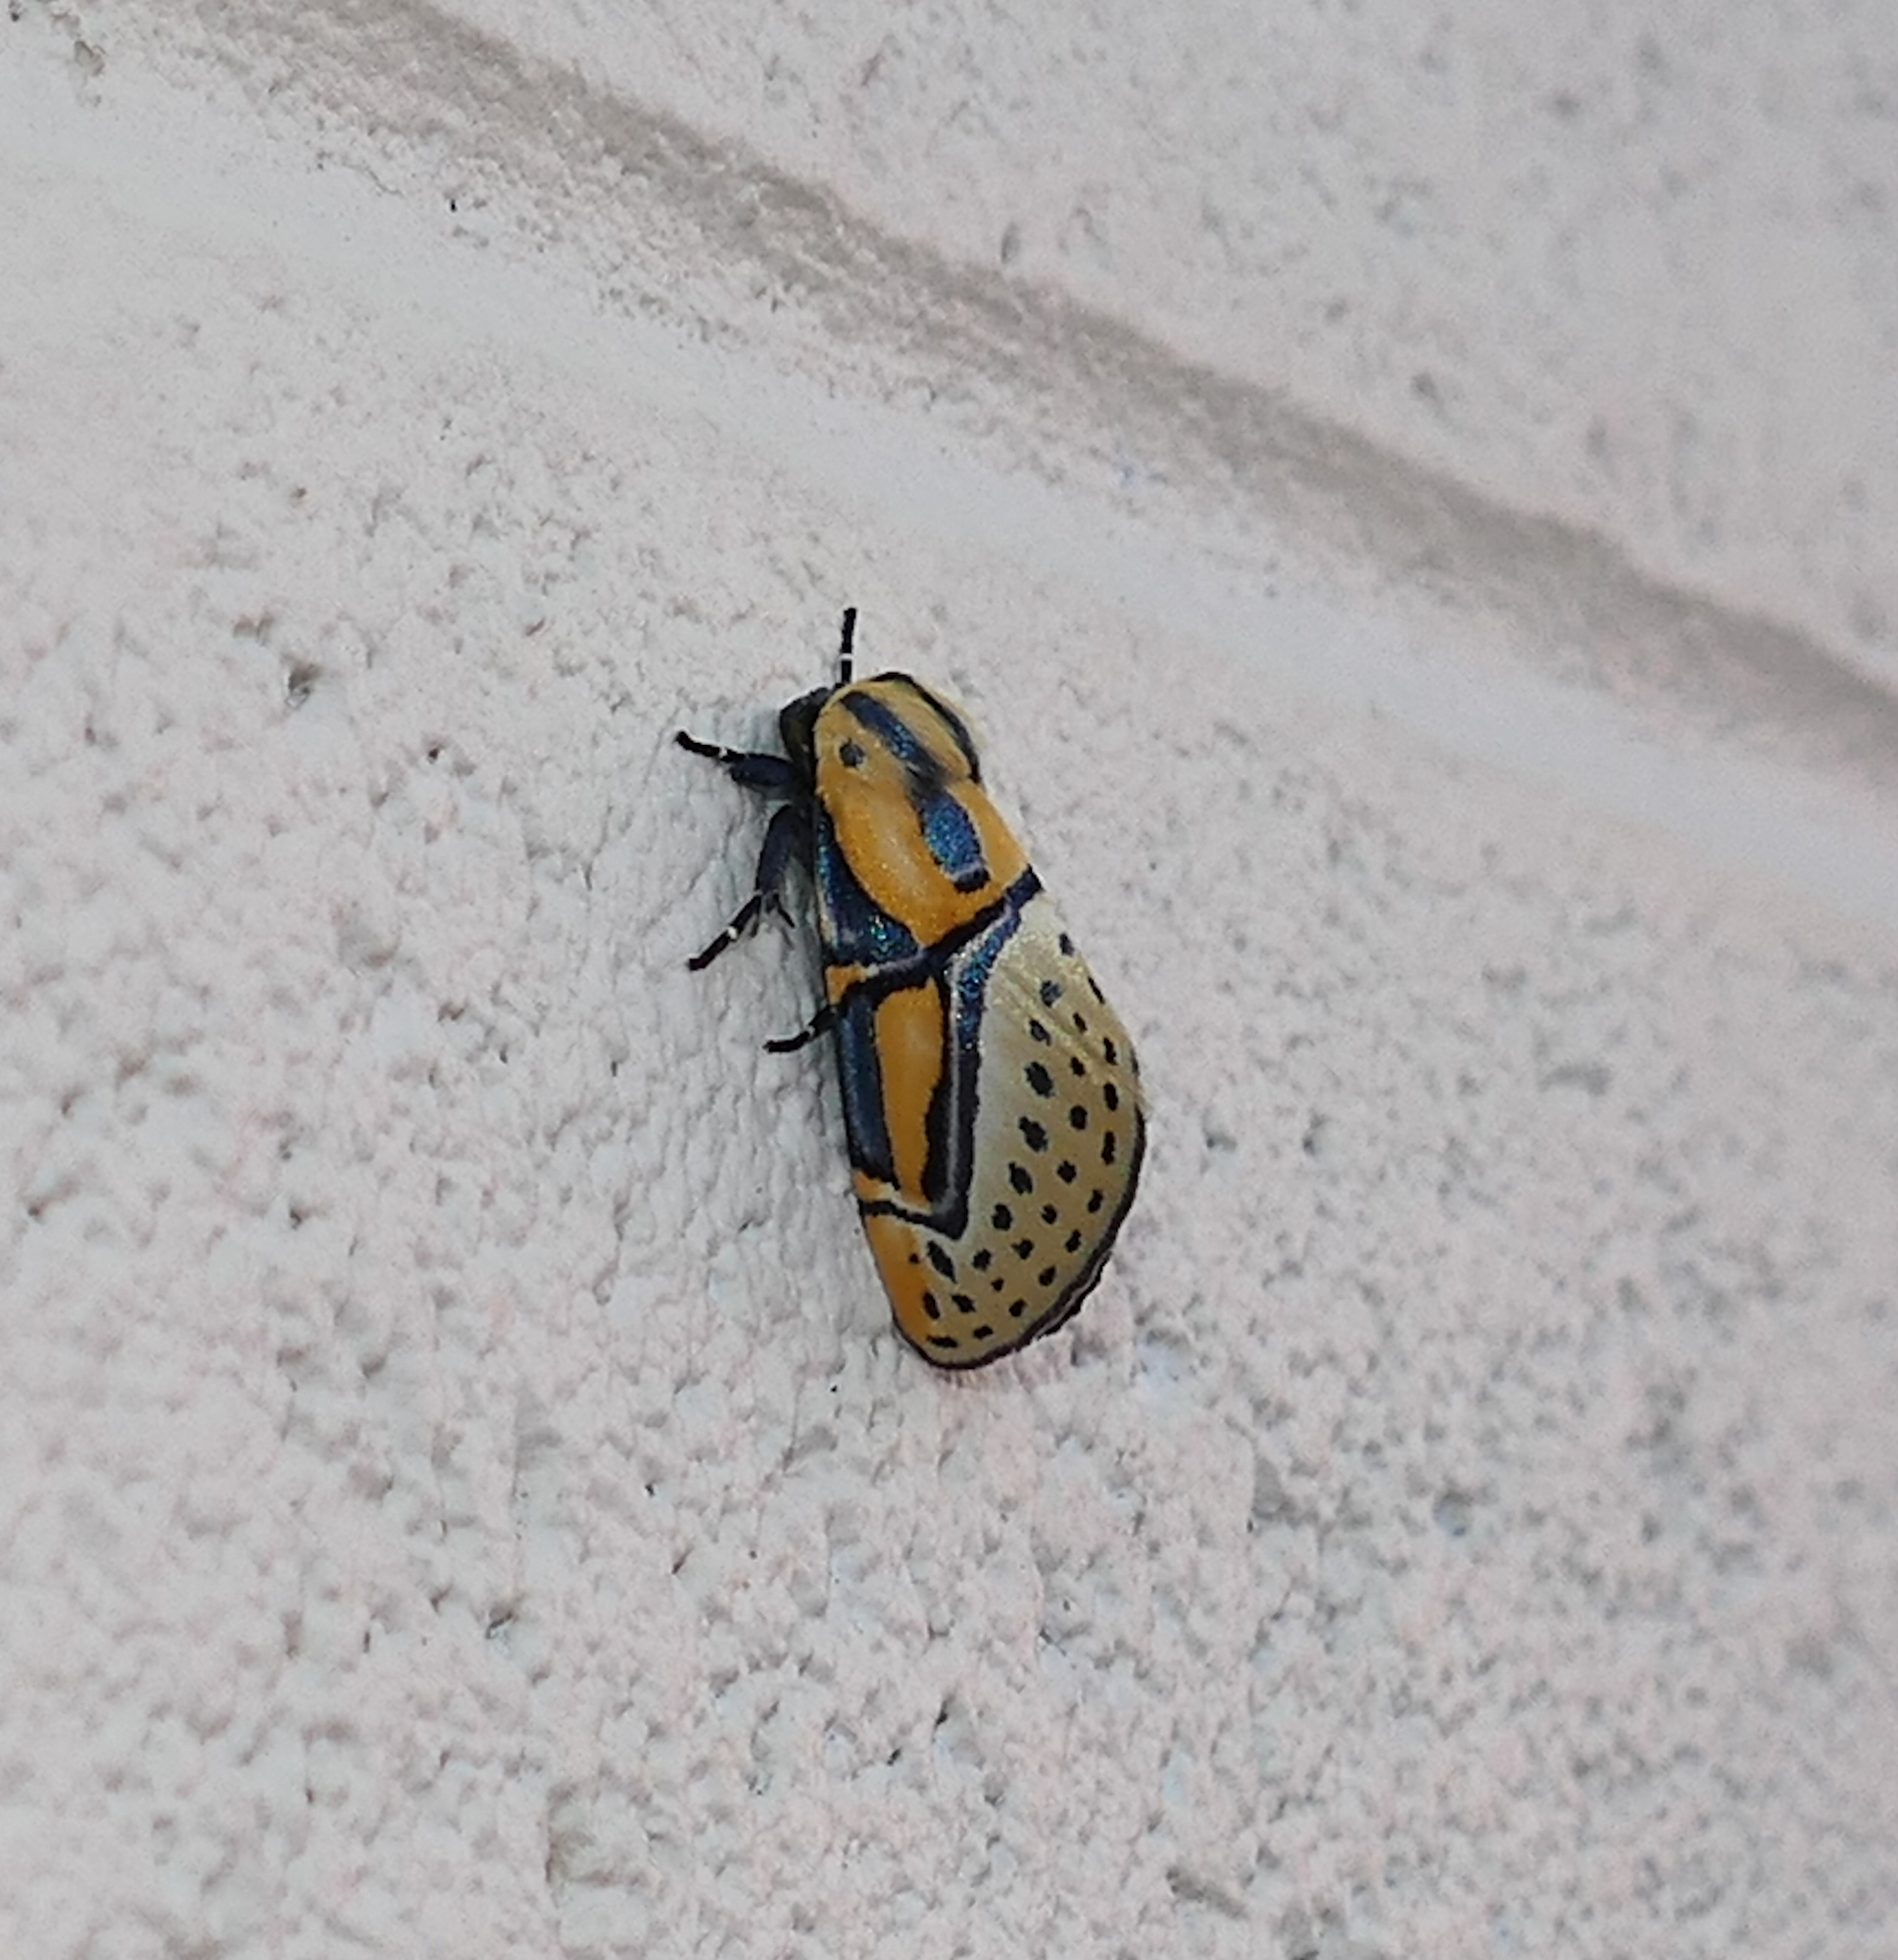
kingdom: Animalia
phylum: Arthropoda
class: Insecta
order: Lepidoptera
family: Erebidae
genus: Diphthera
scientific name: Diphthera festiva
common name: Hieroglyphic moth
